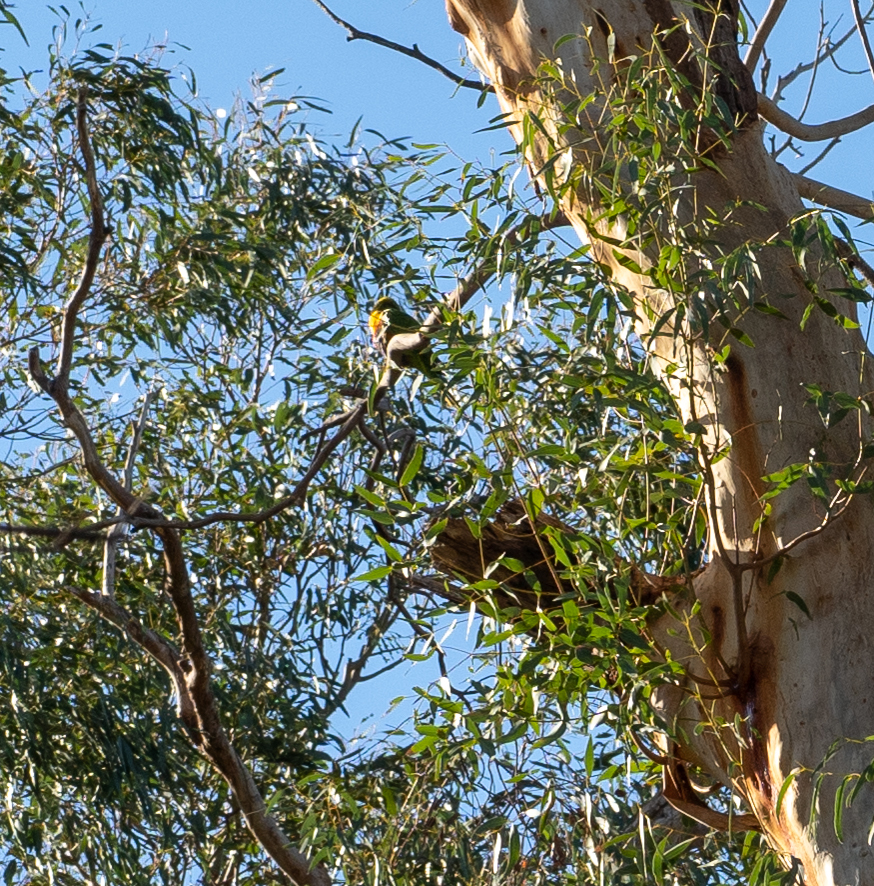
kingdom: Animalia
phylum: Chordata
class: Aves
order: Psittaciformes
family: Psittacidae
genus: Trichoglossus
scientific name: Trichoglossus haematodus
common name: Coconut lorikeet
